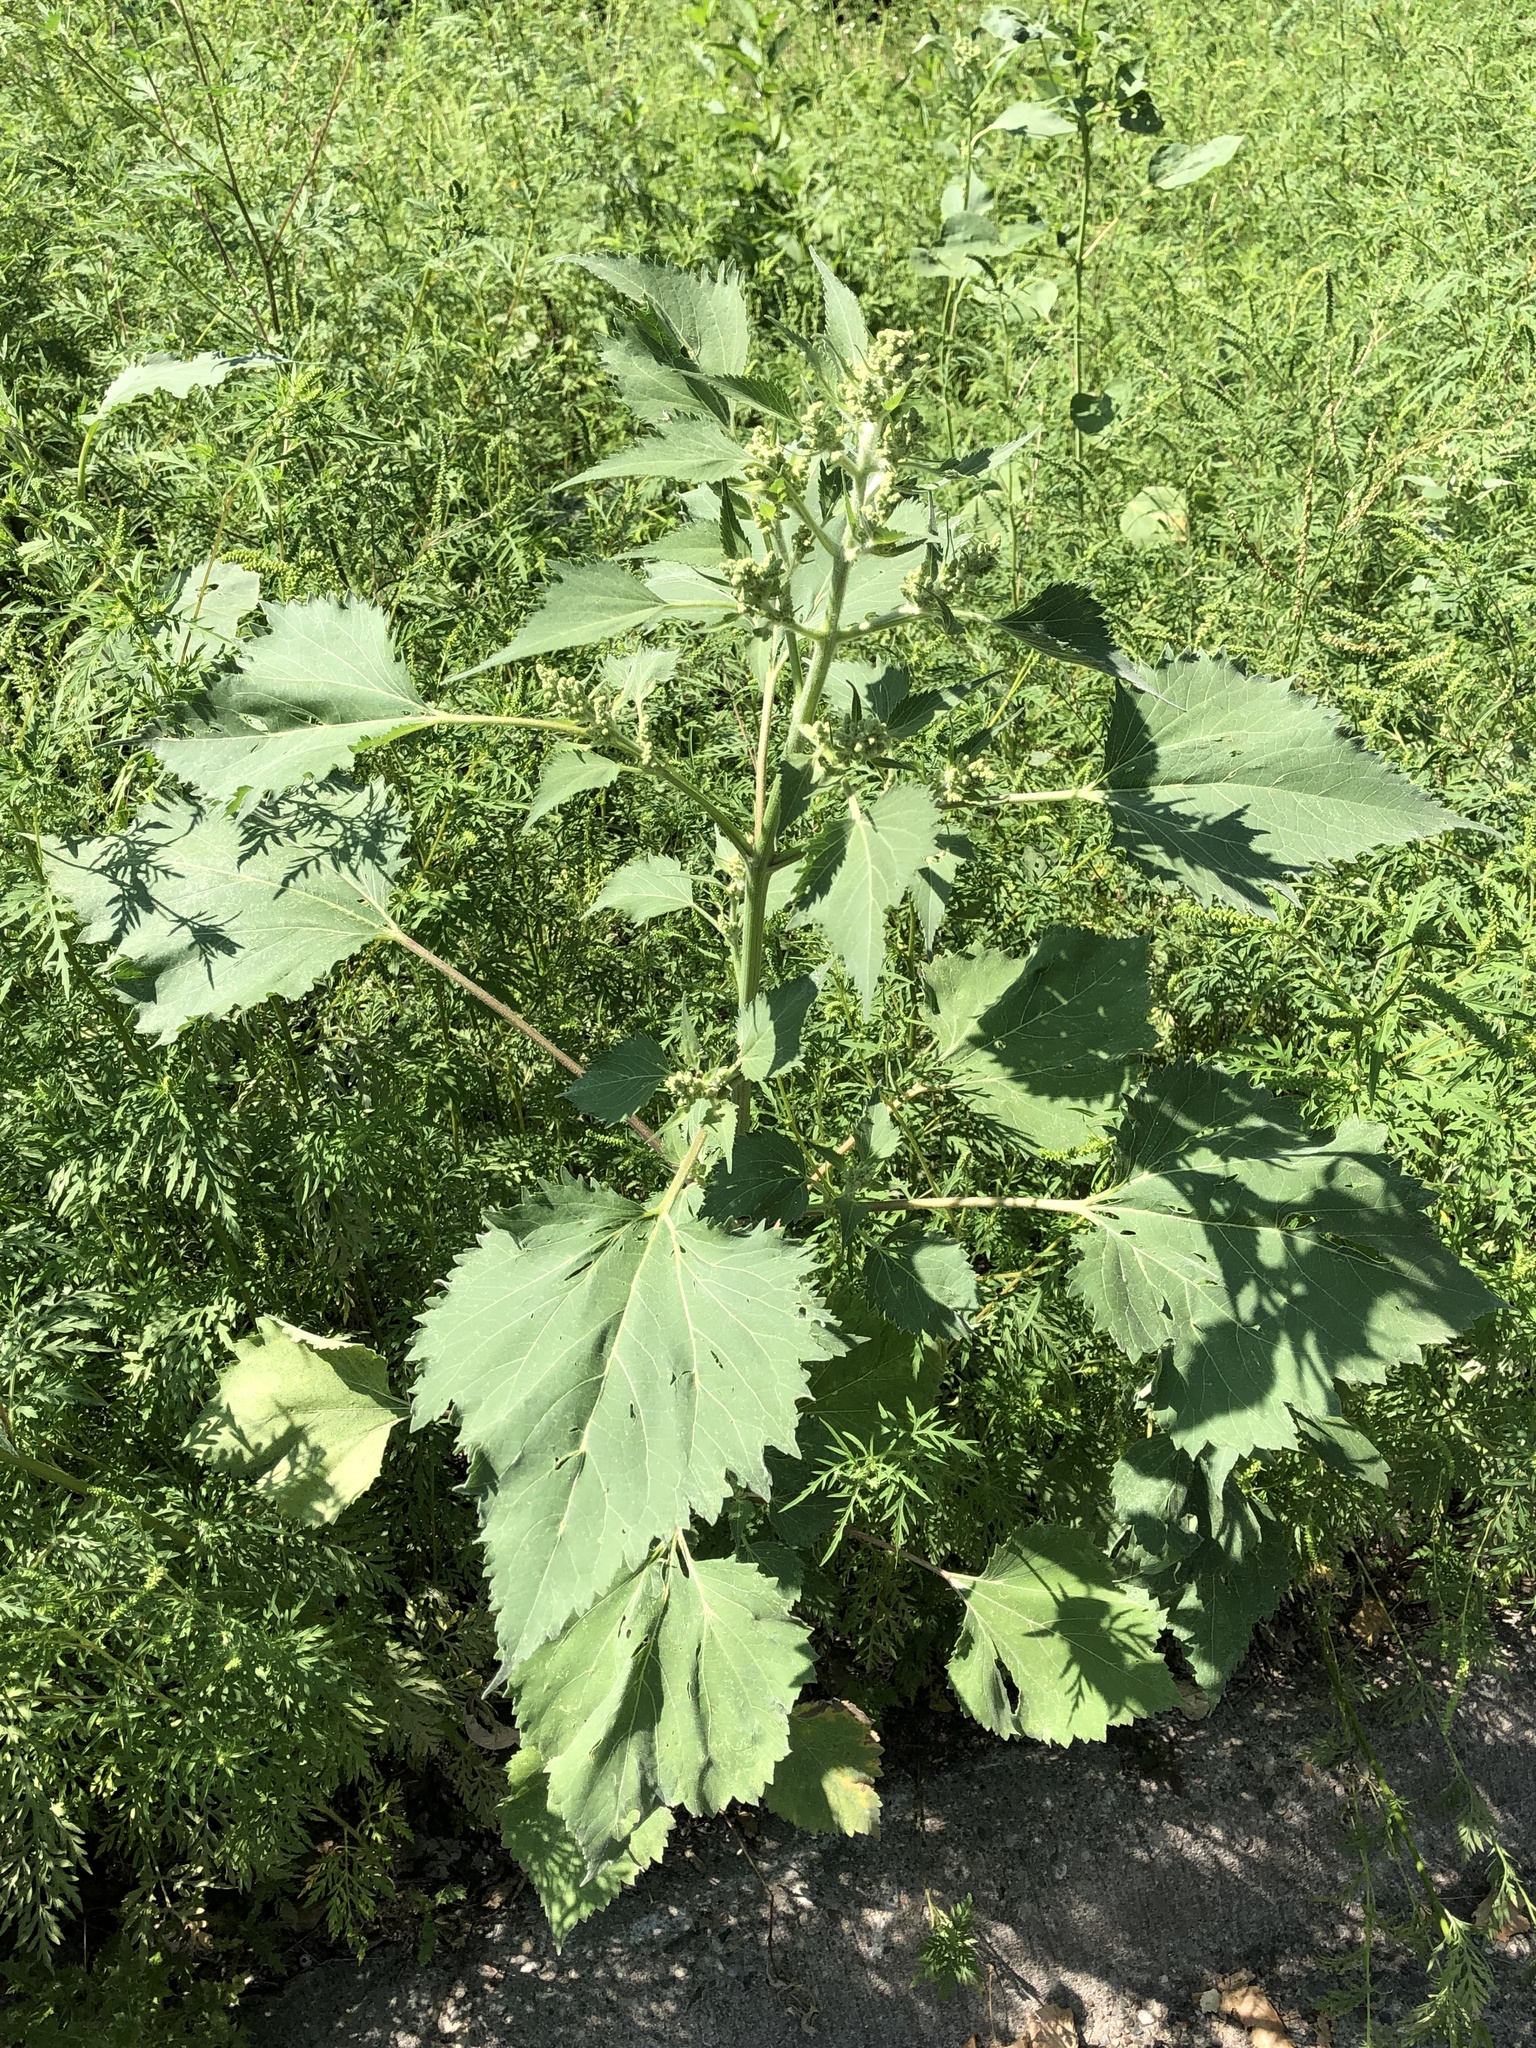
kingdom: Plantae
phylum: Tracheophyta
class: Magnoliopsida
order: Asterales
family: Asteraceae
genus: Cyclachaena
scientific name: Cyclachaena xanthiifolia
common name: Giant sumpweed
